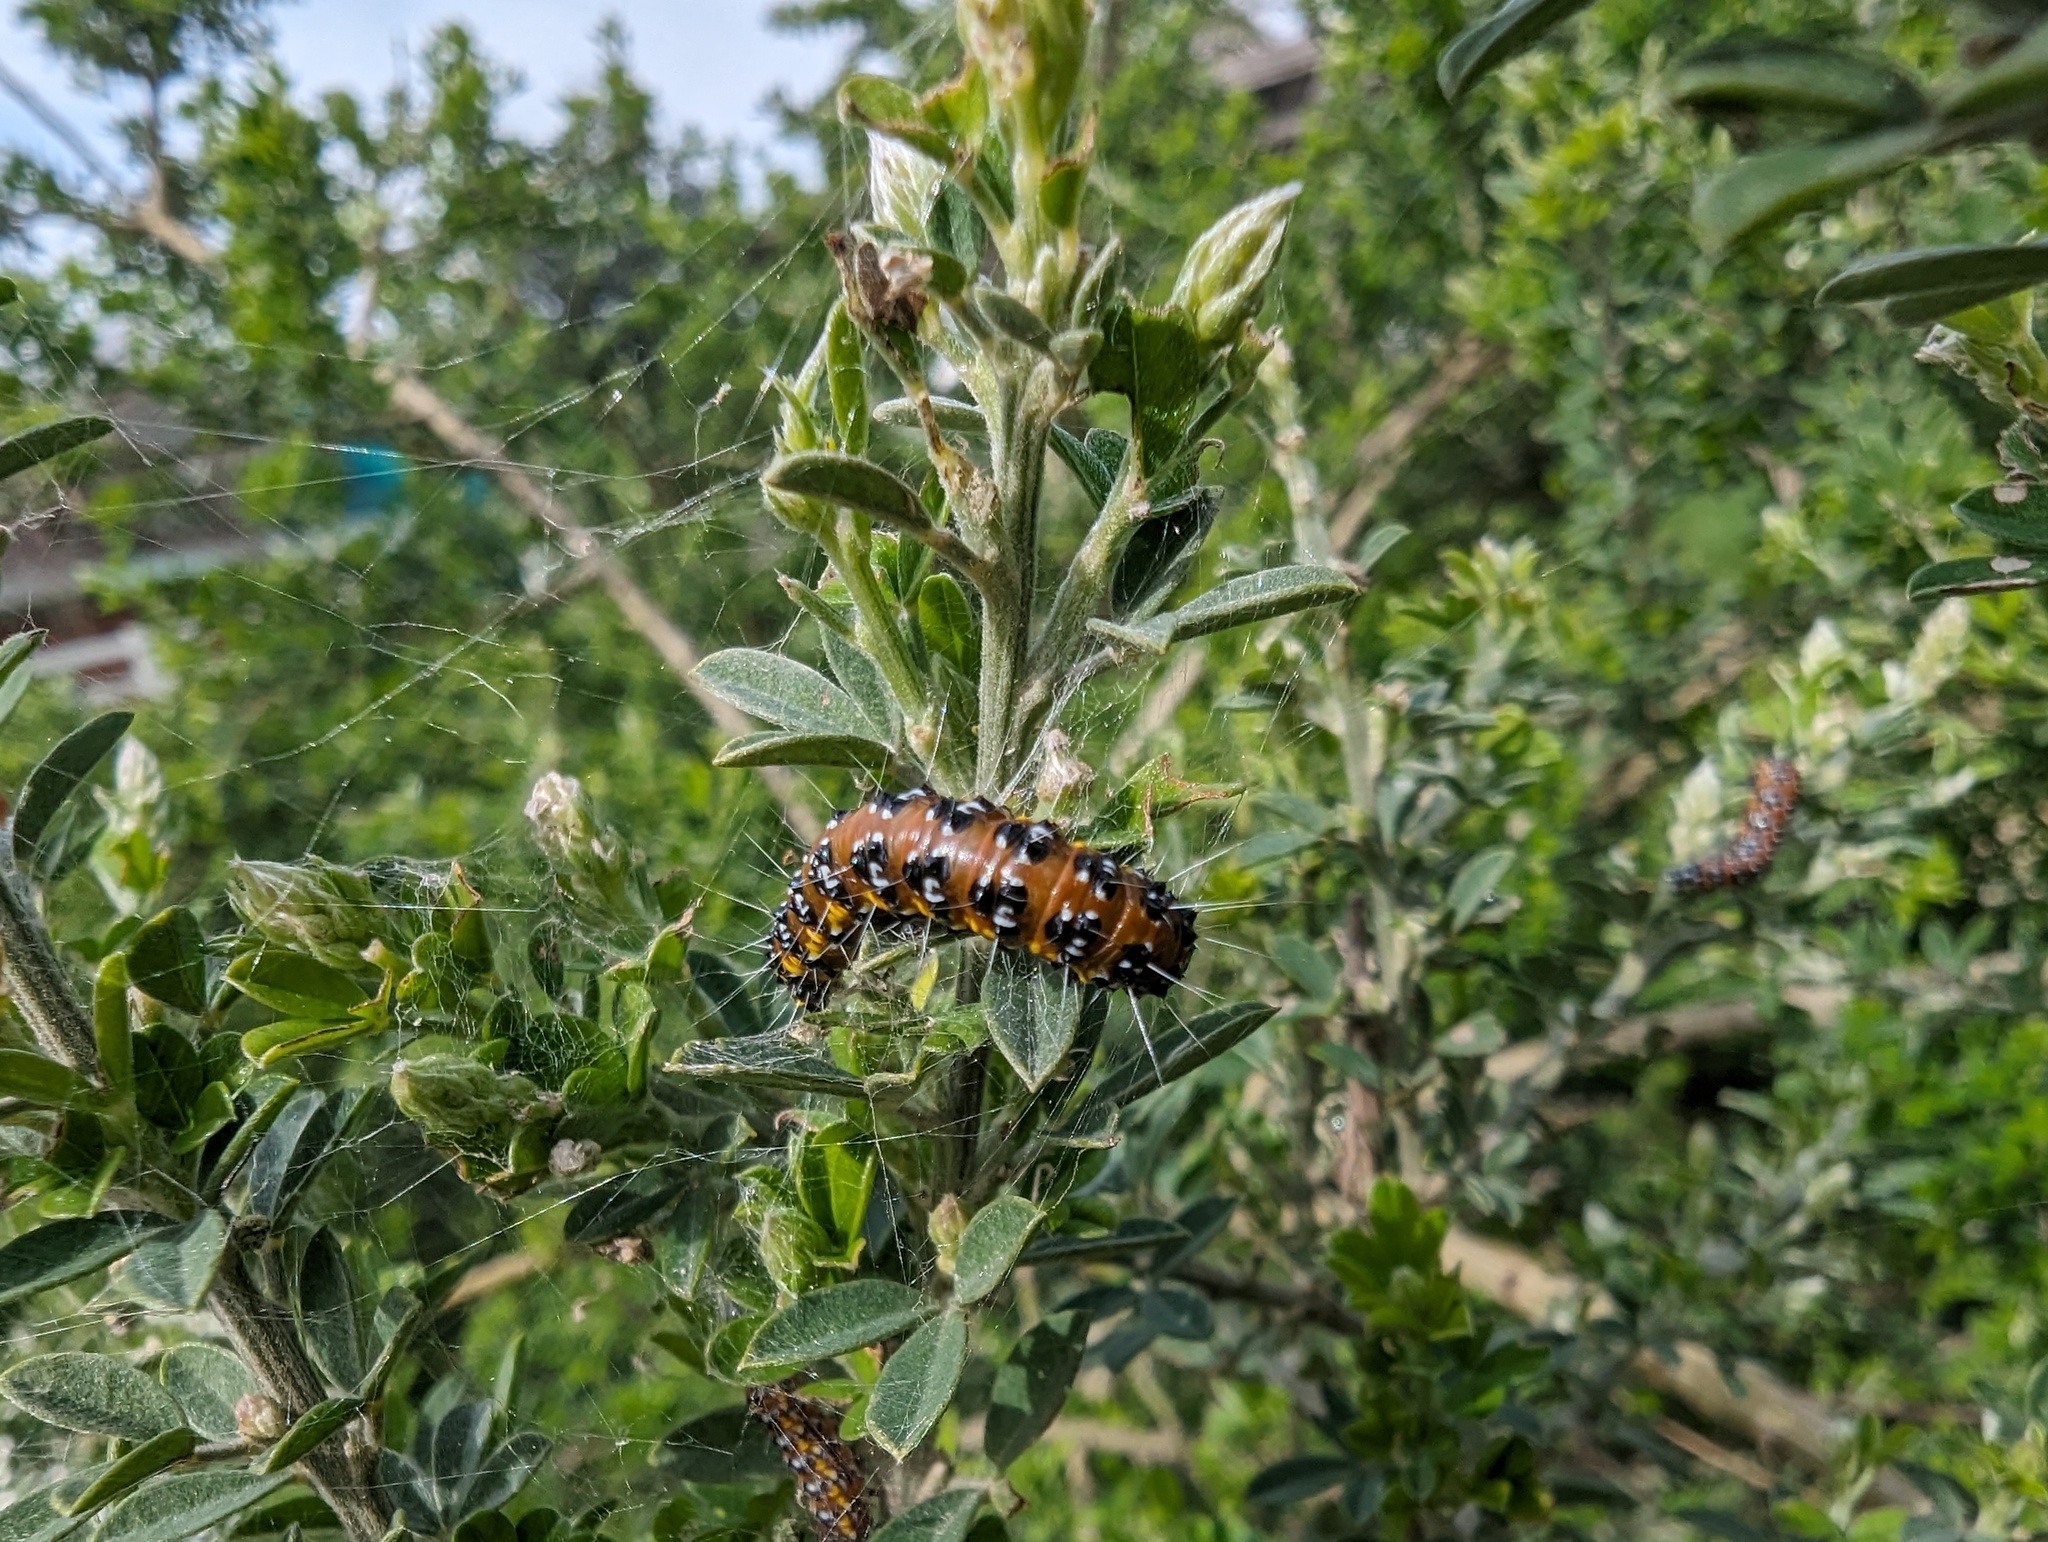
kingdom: Animalia
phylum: Arthropoda
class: Insecta
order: Lepidoptera
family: Crambidae
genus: Uresiphita
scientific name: Uresiphita reversalis
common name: Genista broom moth
